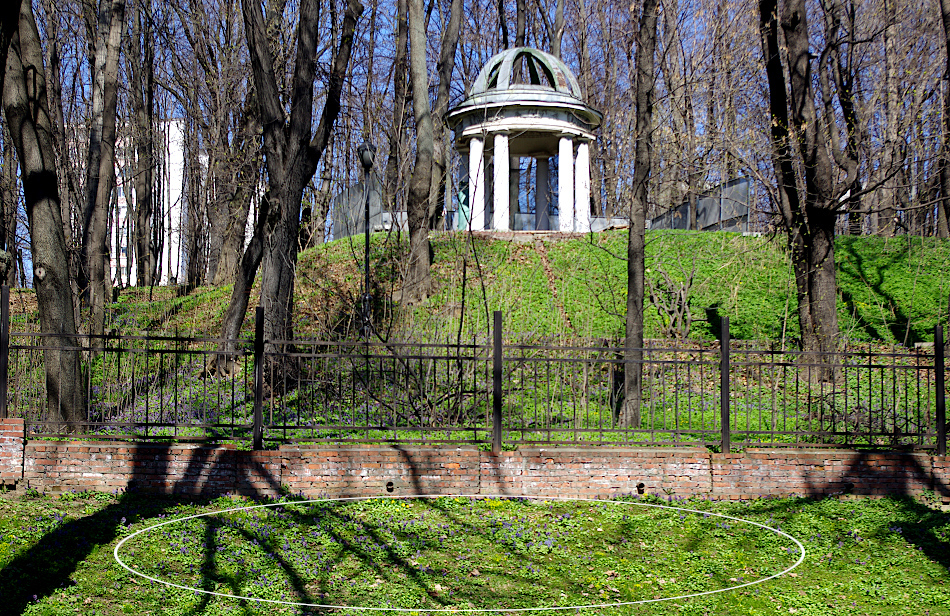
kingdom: Plantae
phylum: Tracheophyta
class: Magnoliopsida
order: Ranunculales
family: Ranunculaceae
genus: Anemone
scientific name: Anemone ranunculoides
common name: Yellow anemone
